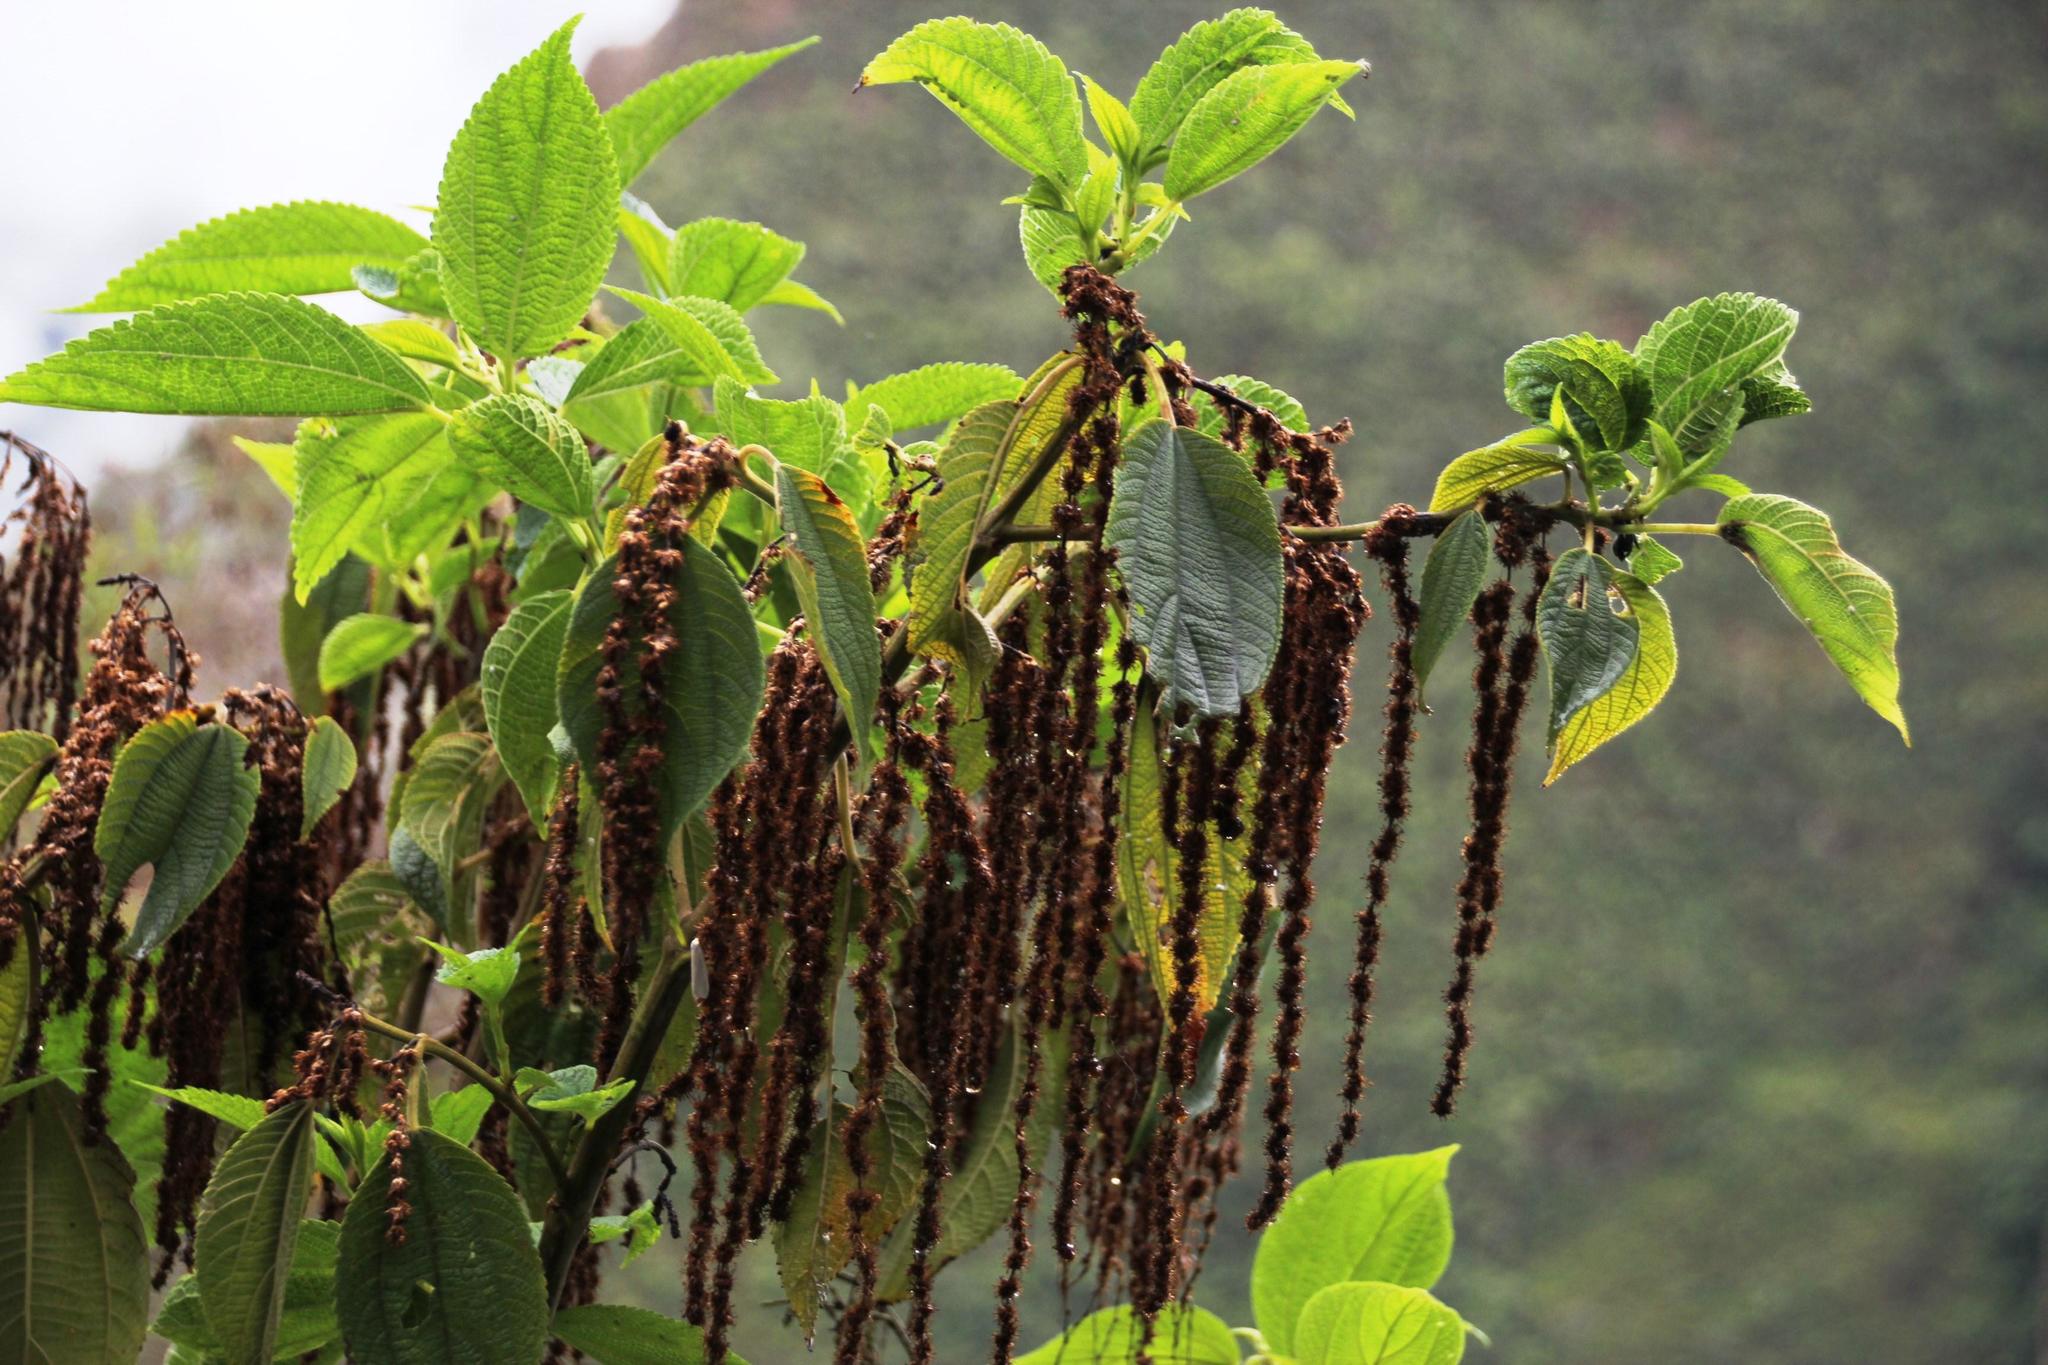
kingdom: Plantae
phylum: Tracheophyta
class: Magnoliopsida
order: Rosales
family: Urticaceae
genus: Boehmeria
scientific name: Boehmeria caudata
